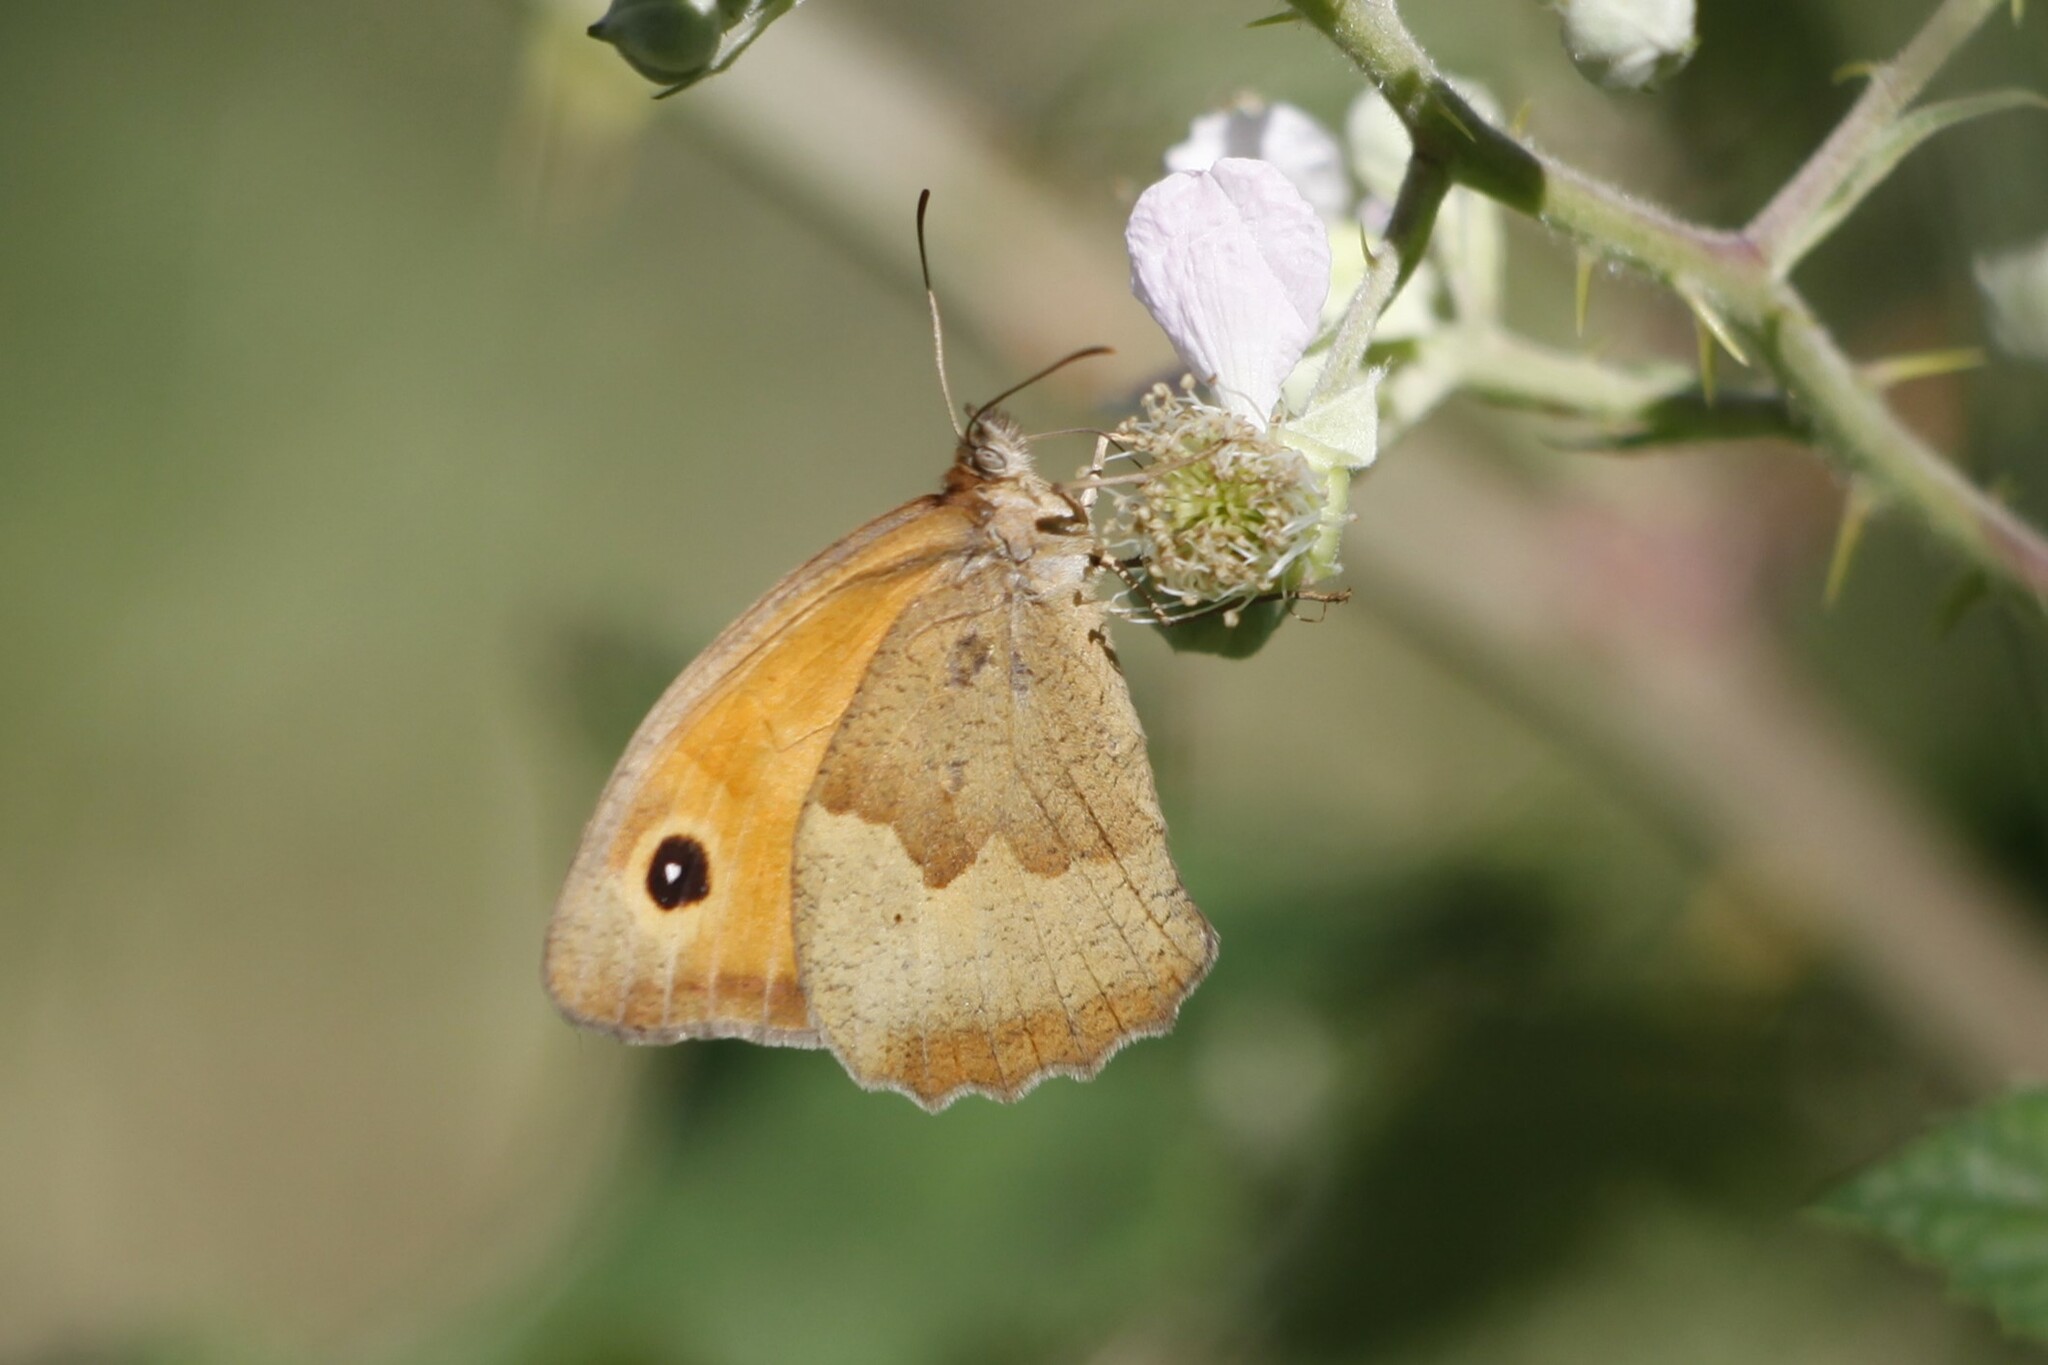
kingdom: Animalia
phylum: Arthropoda
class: Insecta
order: Lepidoptera
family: Nymphalidae
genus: Maniola
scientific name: Maniola jurtina
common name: Meadow brown
